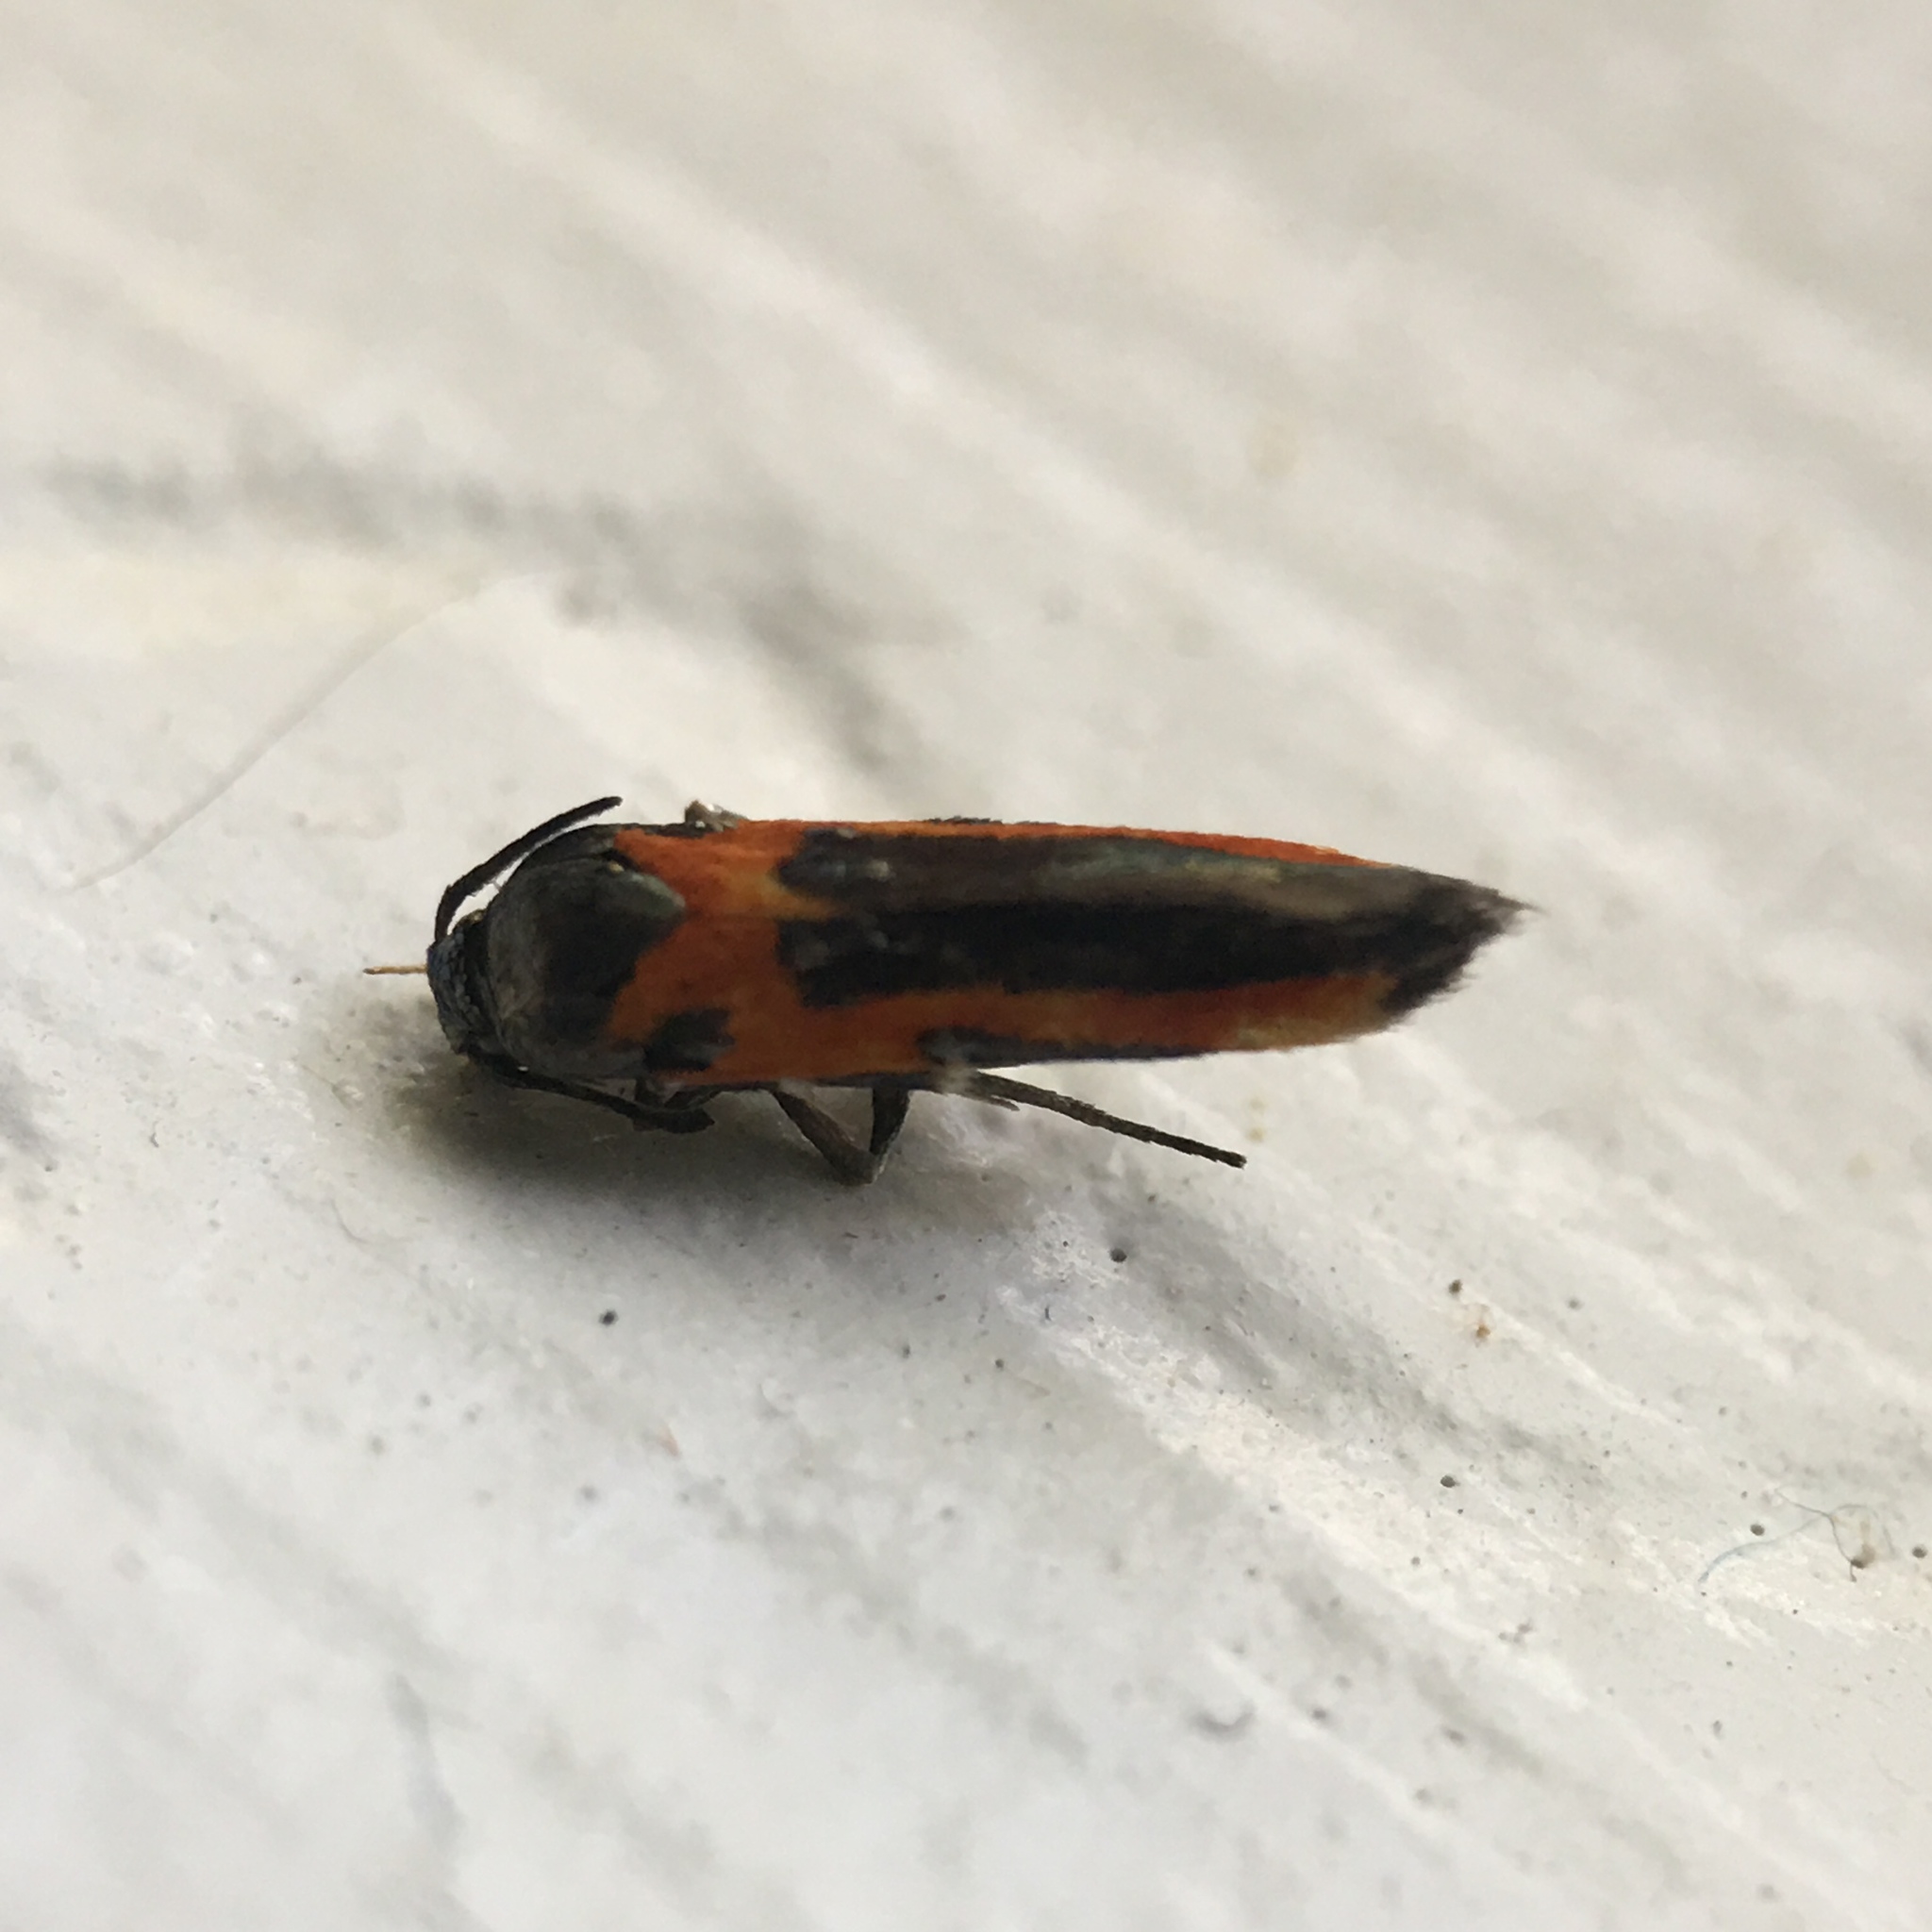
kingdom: Animalia
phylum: Arthropoda
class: Insecta
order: Lepidoptera
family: Cosmopterigidae
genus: Euclemensia
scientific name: Euclemensia bassettella
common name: Kermes scale moth
